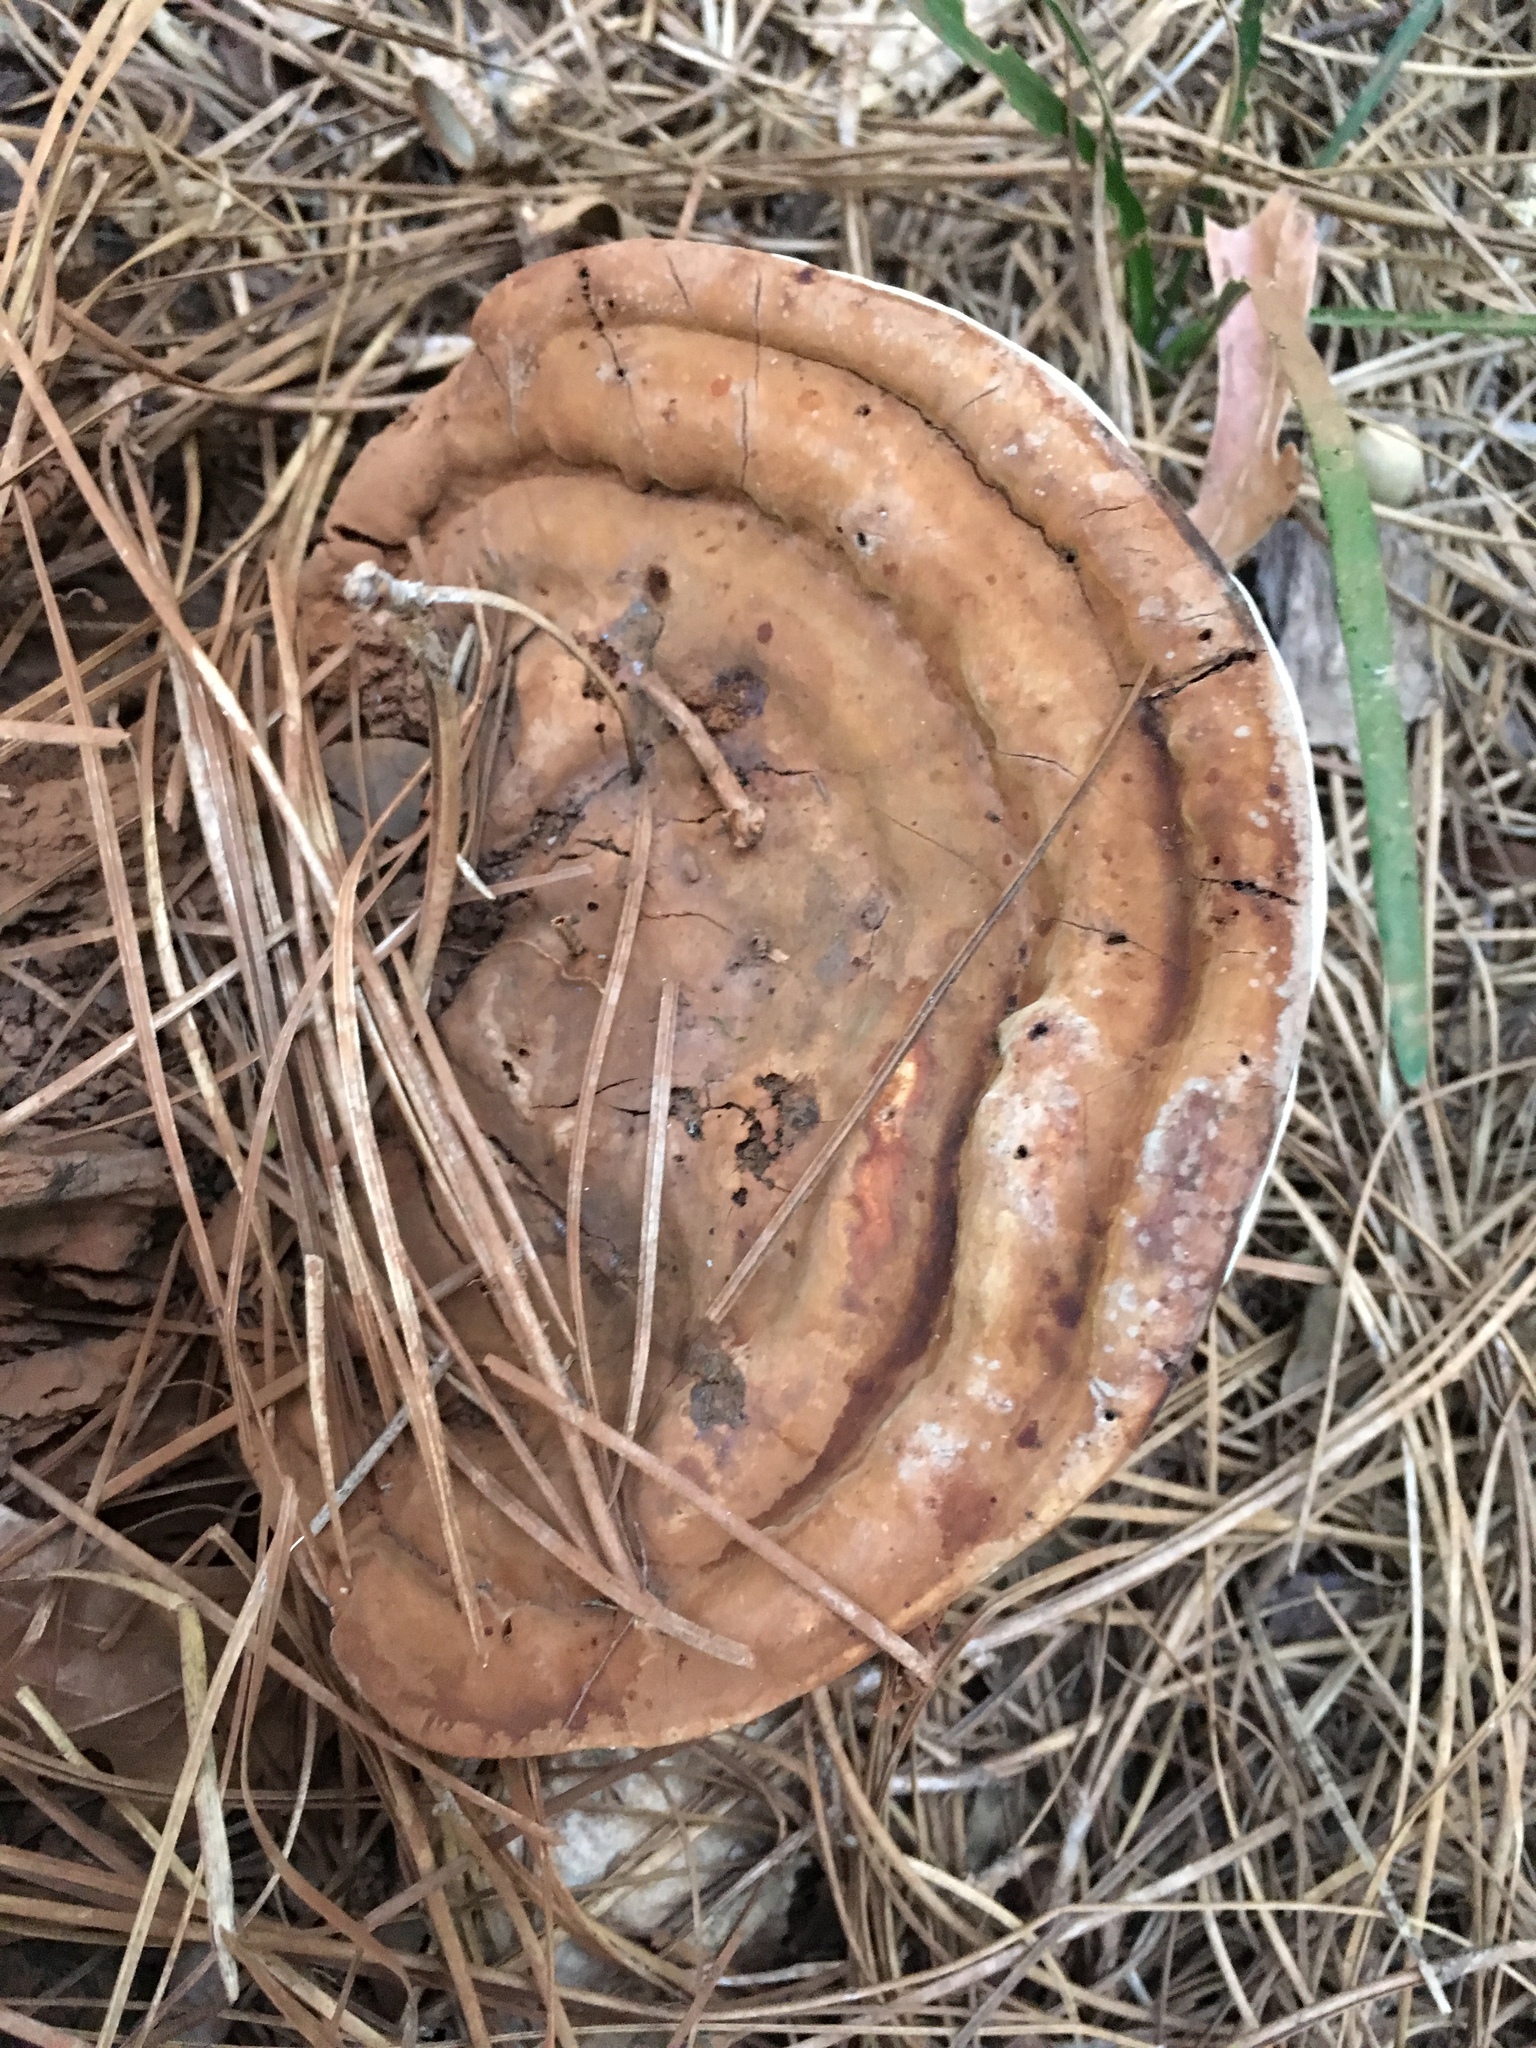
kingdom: Fungi
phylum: Basidiomycota
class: Agaricomycetes
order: Polyporales
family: Polyporaceae
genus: Ganoderma
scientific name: Ganoderma applanatum
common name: Artist's bracket
